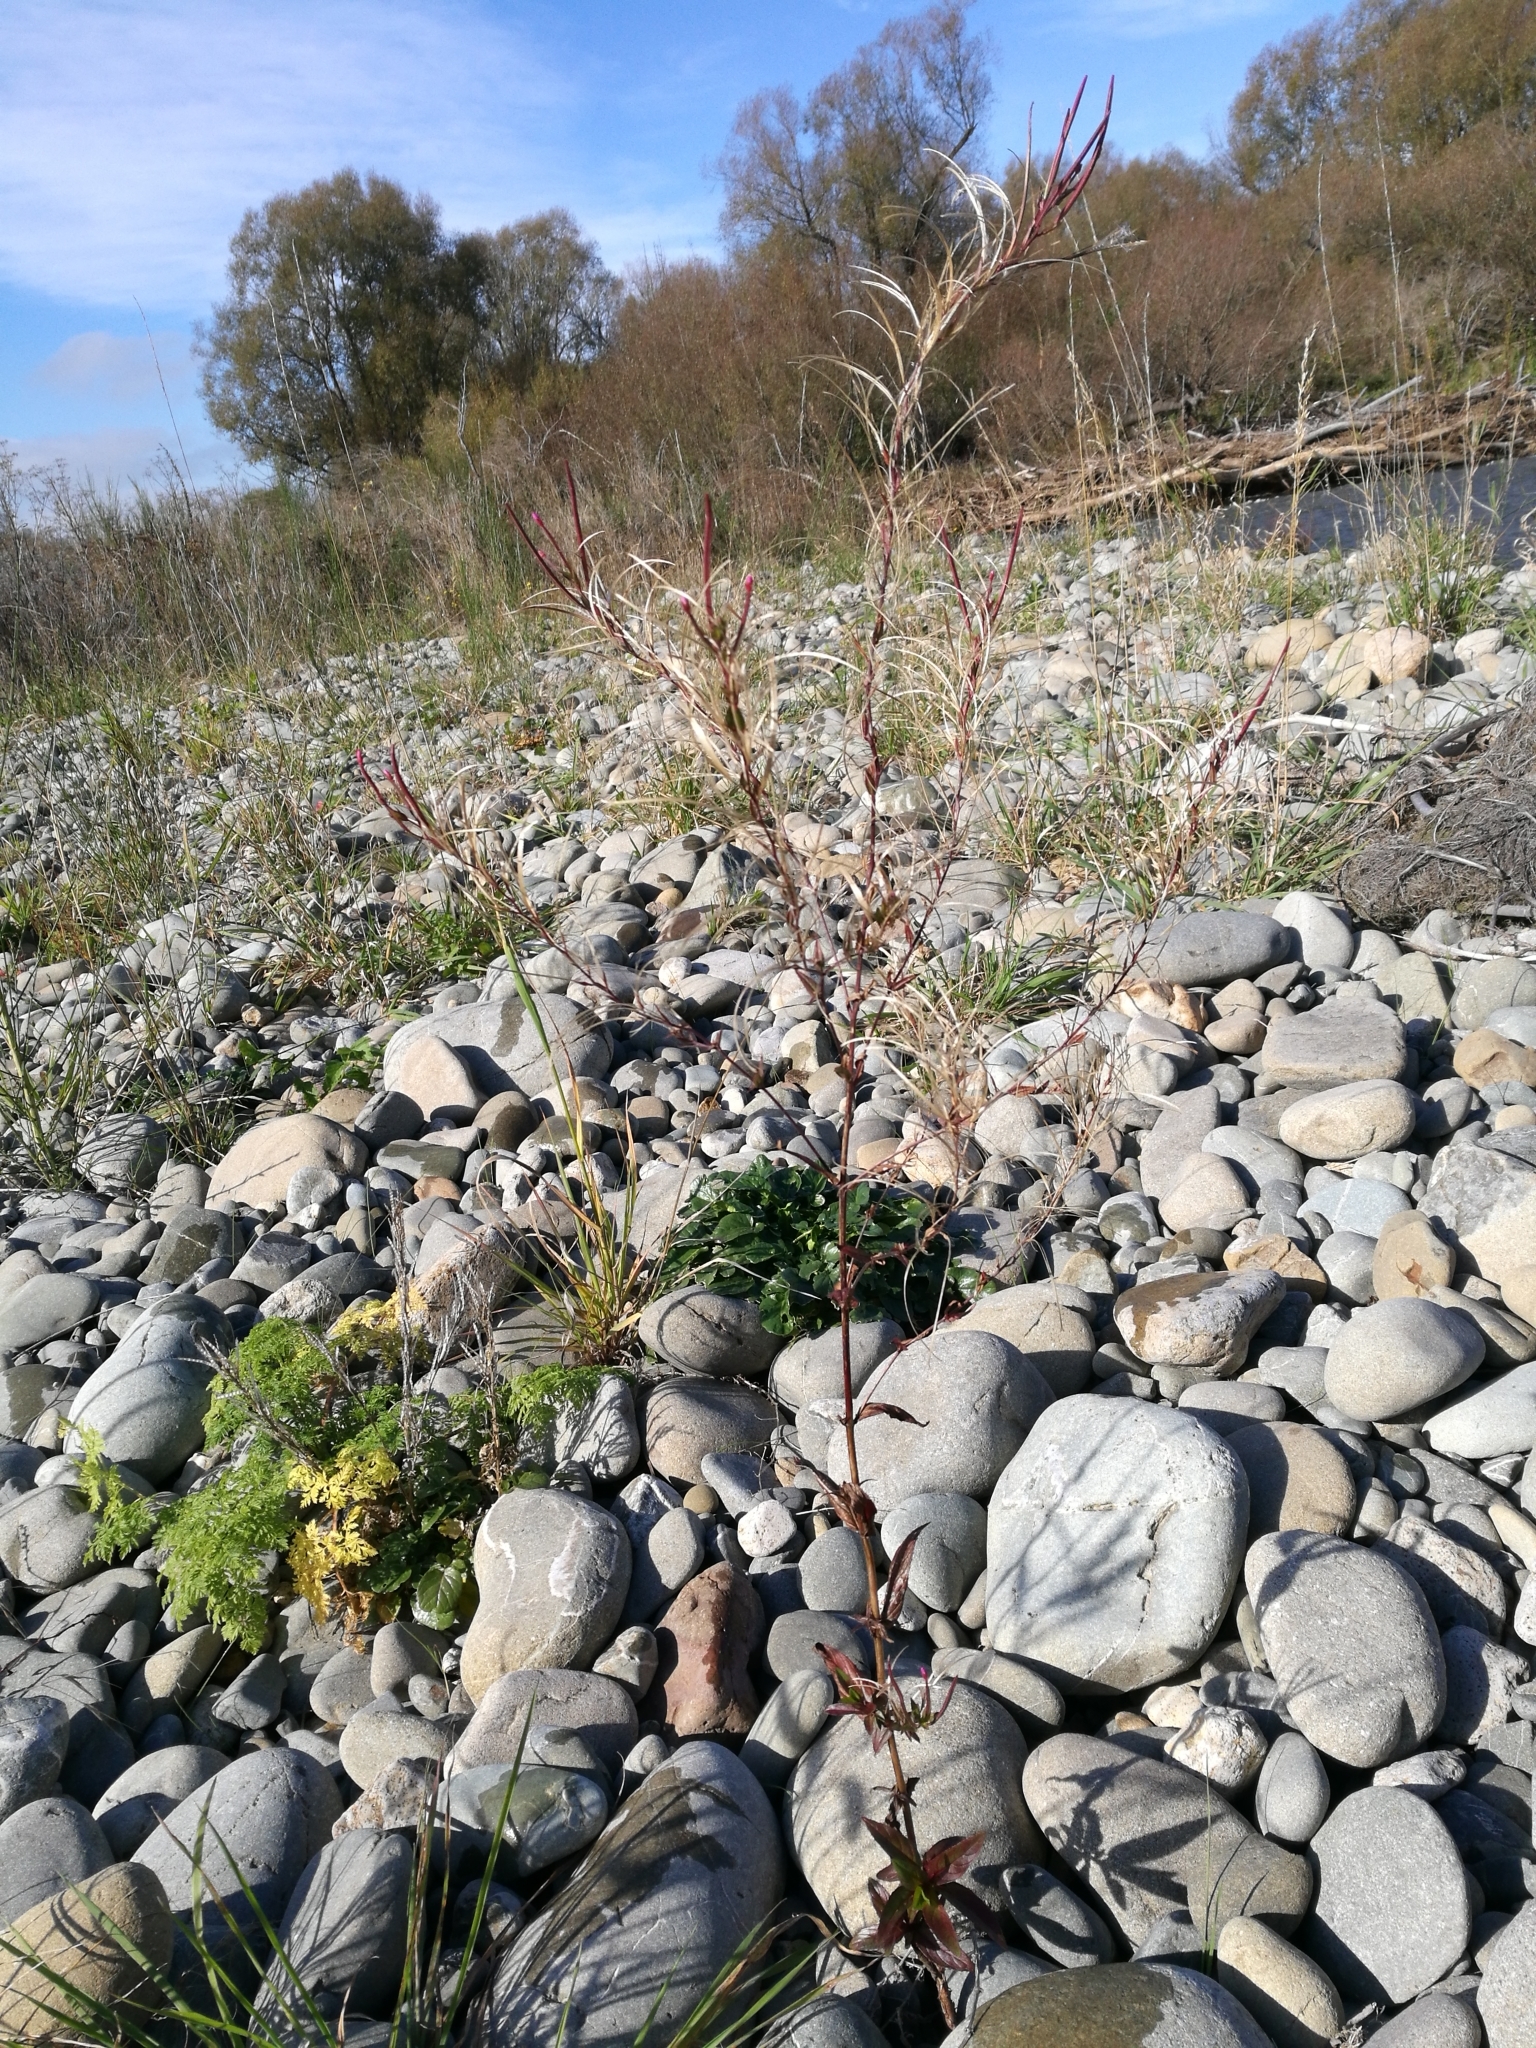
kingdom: Plantae
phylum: Tracheophyta
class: Magnoliopsida
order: Myrtales
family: Onagraceae
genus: Epilobium
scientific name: Epilobium ciliatum
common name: American willowherb
